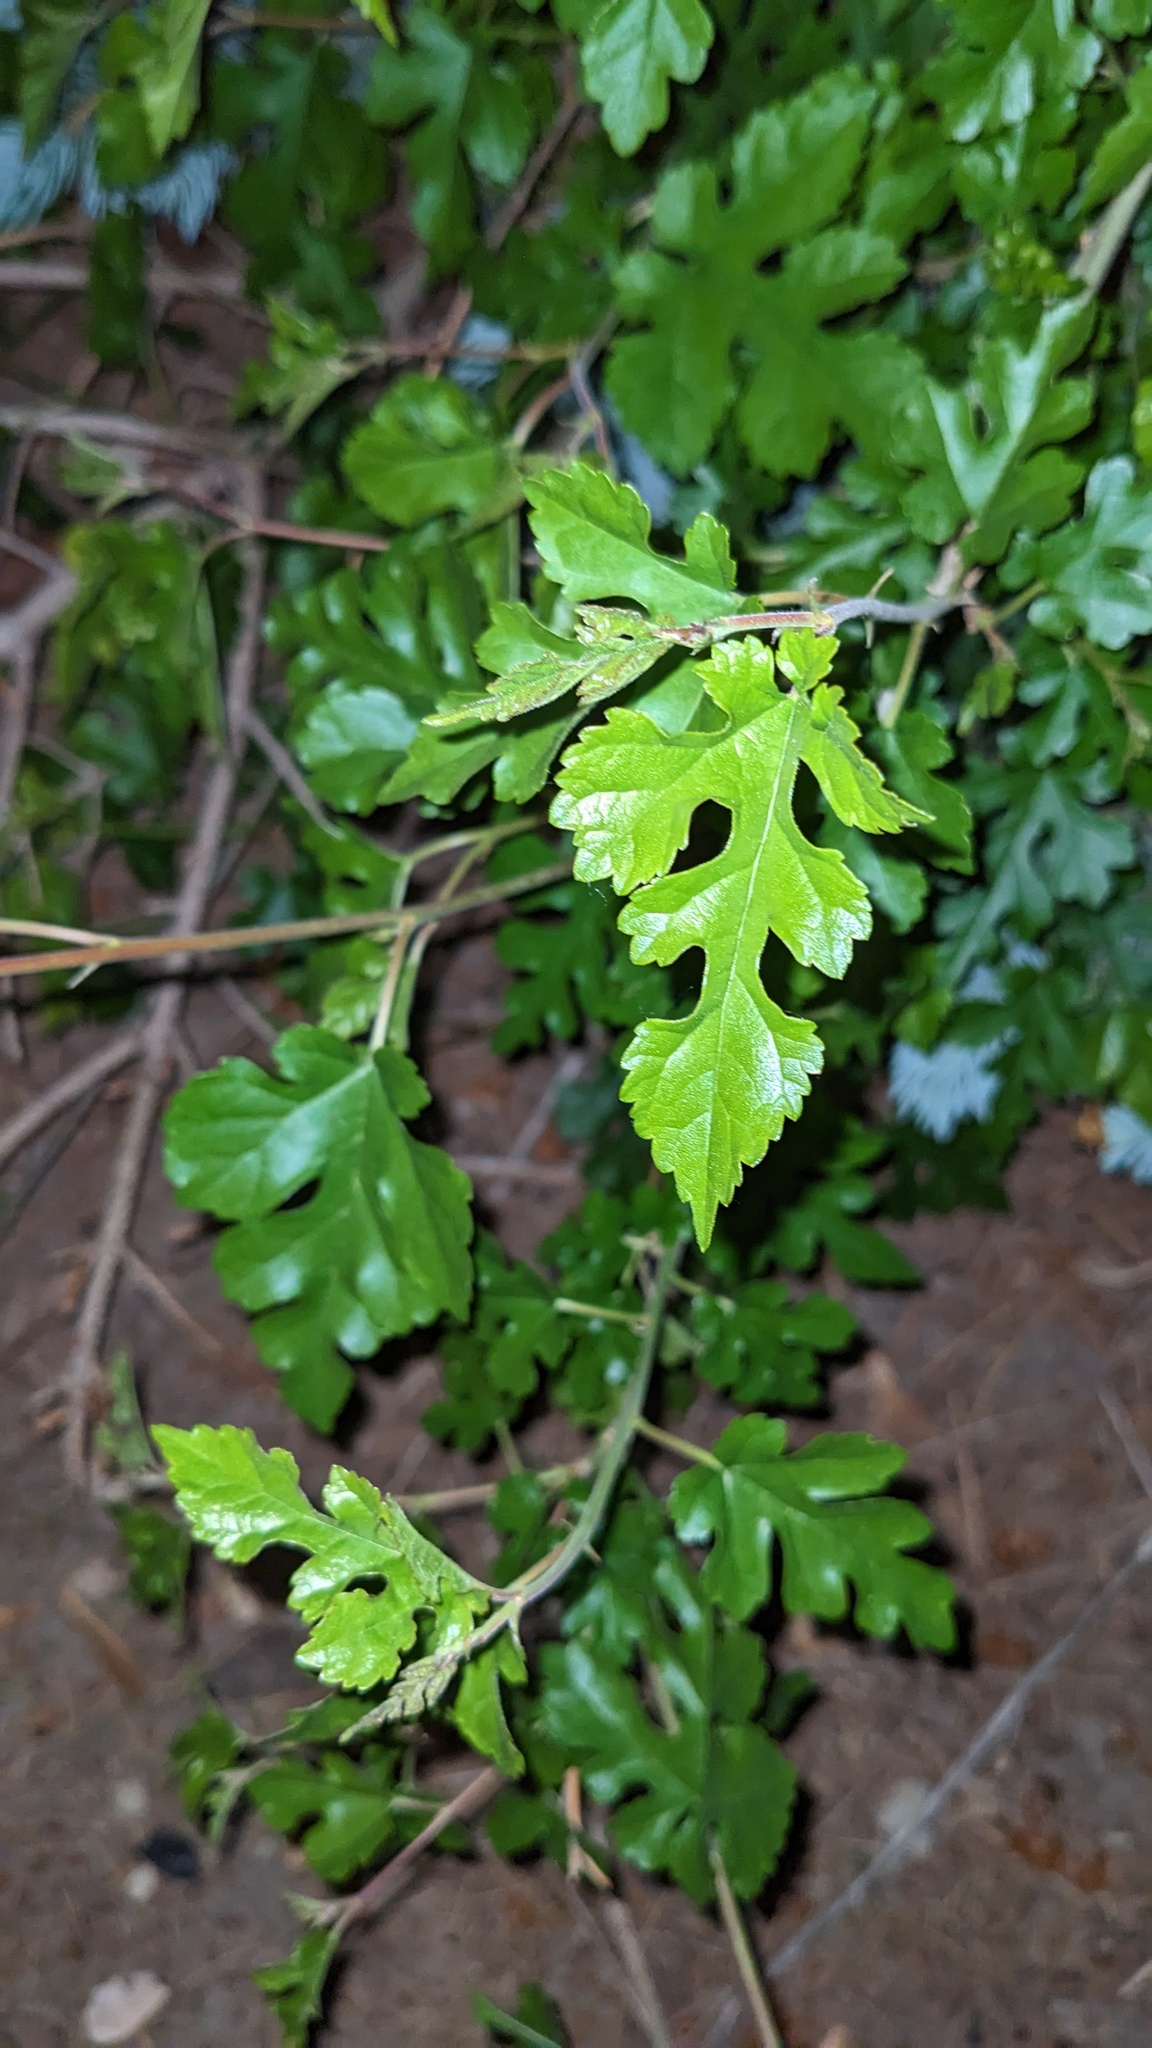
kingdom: Plantae
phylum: Tracheophyta
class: Magnoliopsida
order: Rosales
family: Moraceae
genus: Morus
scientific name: Morus alba
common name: White mulberry
